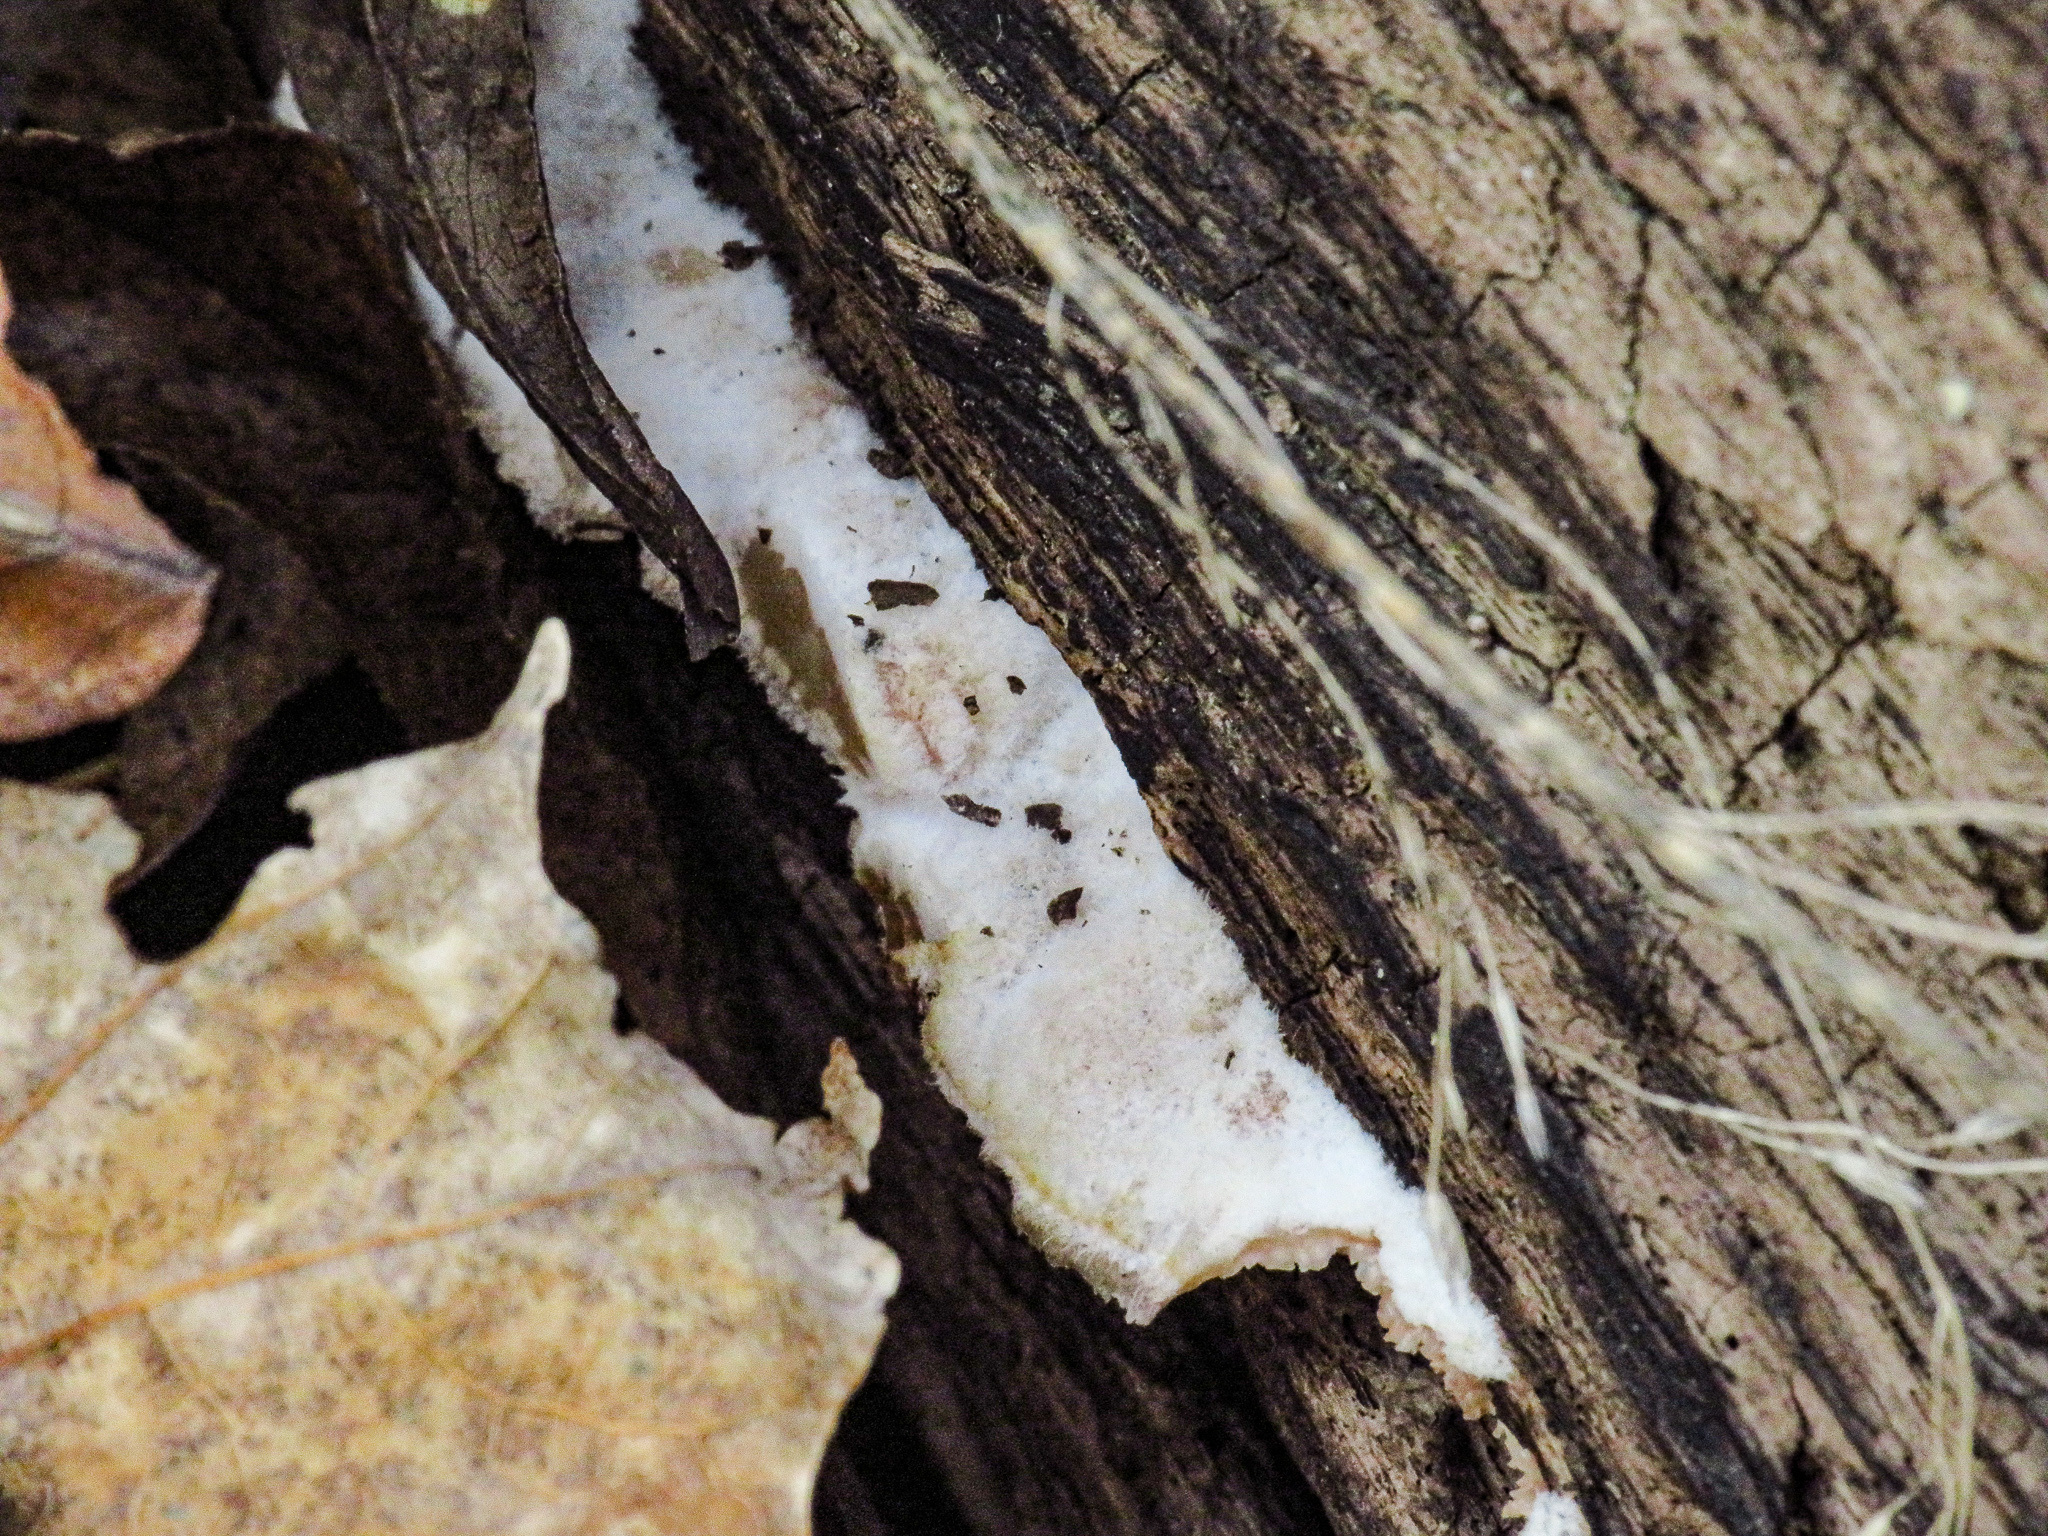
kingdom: Fungi
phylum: Basidiomycota
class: Agaricomycetes
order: Polyporales
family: Meruliaceae
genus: Phlebia
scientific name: Phlebia tremellosa
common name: Jelly rot
